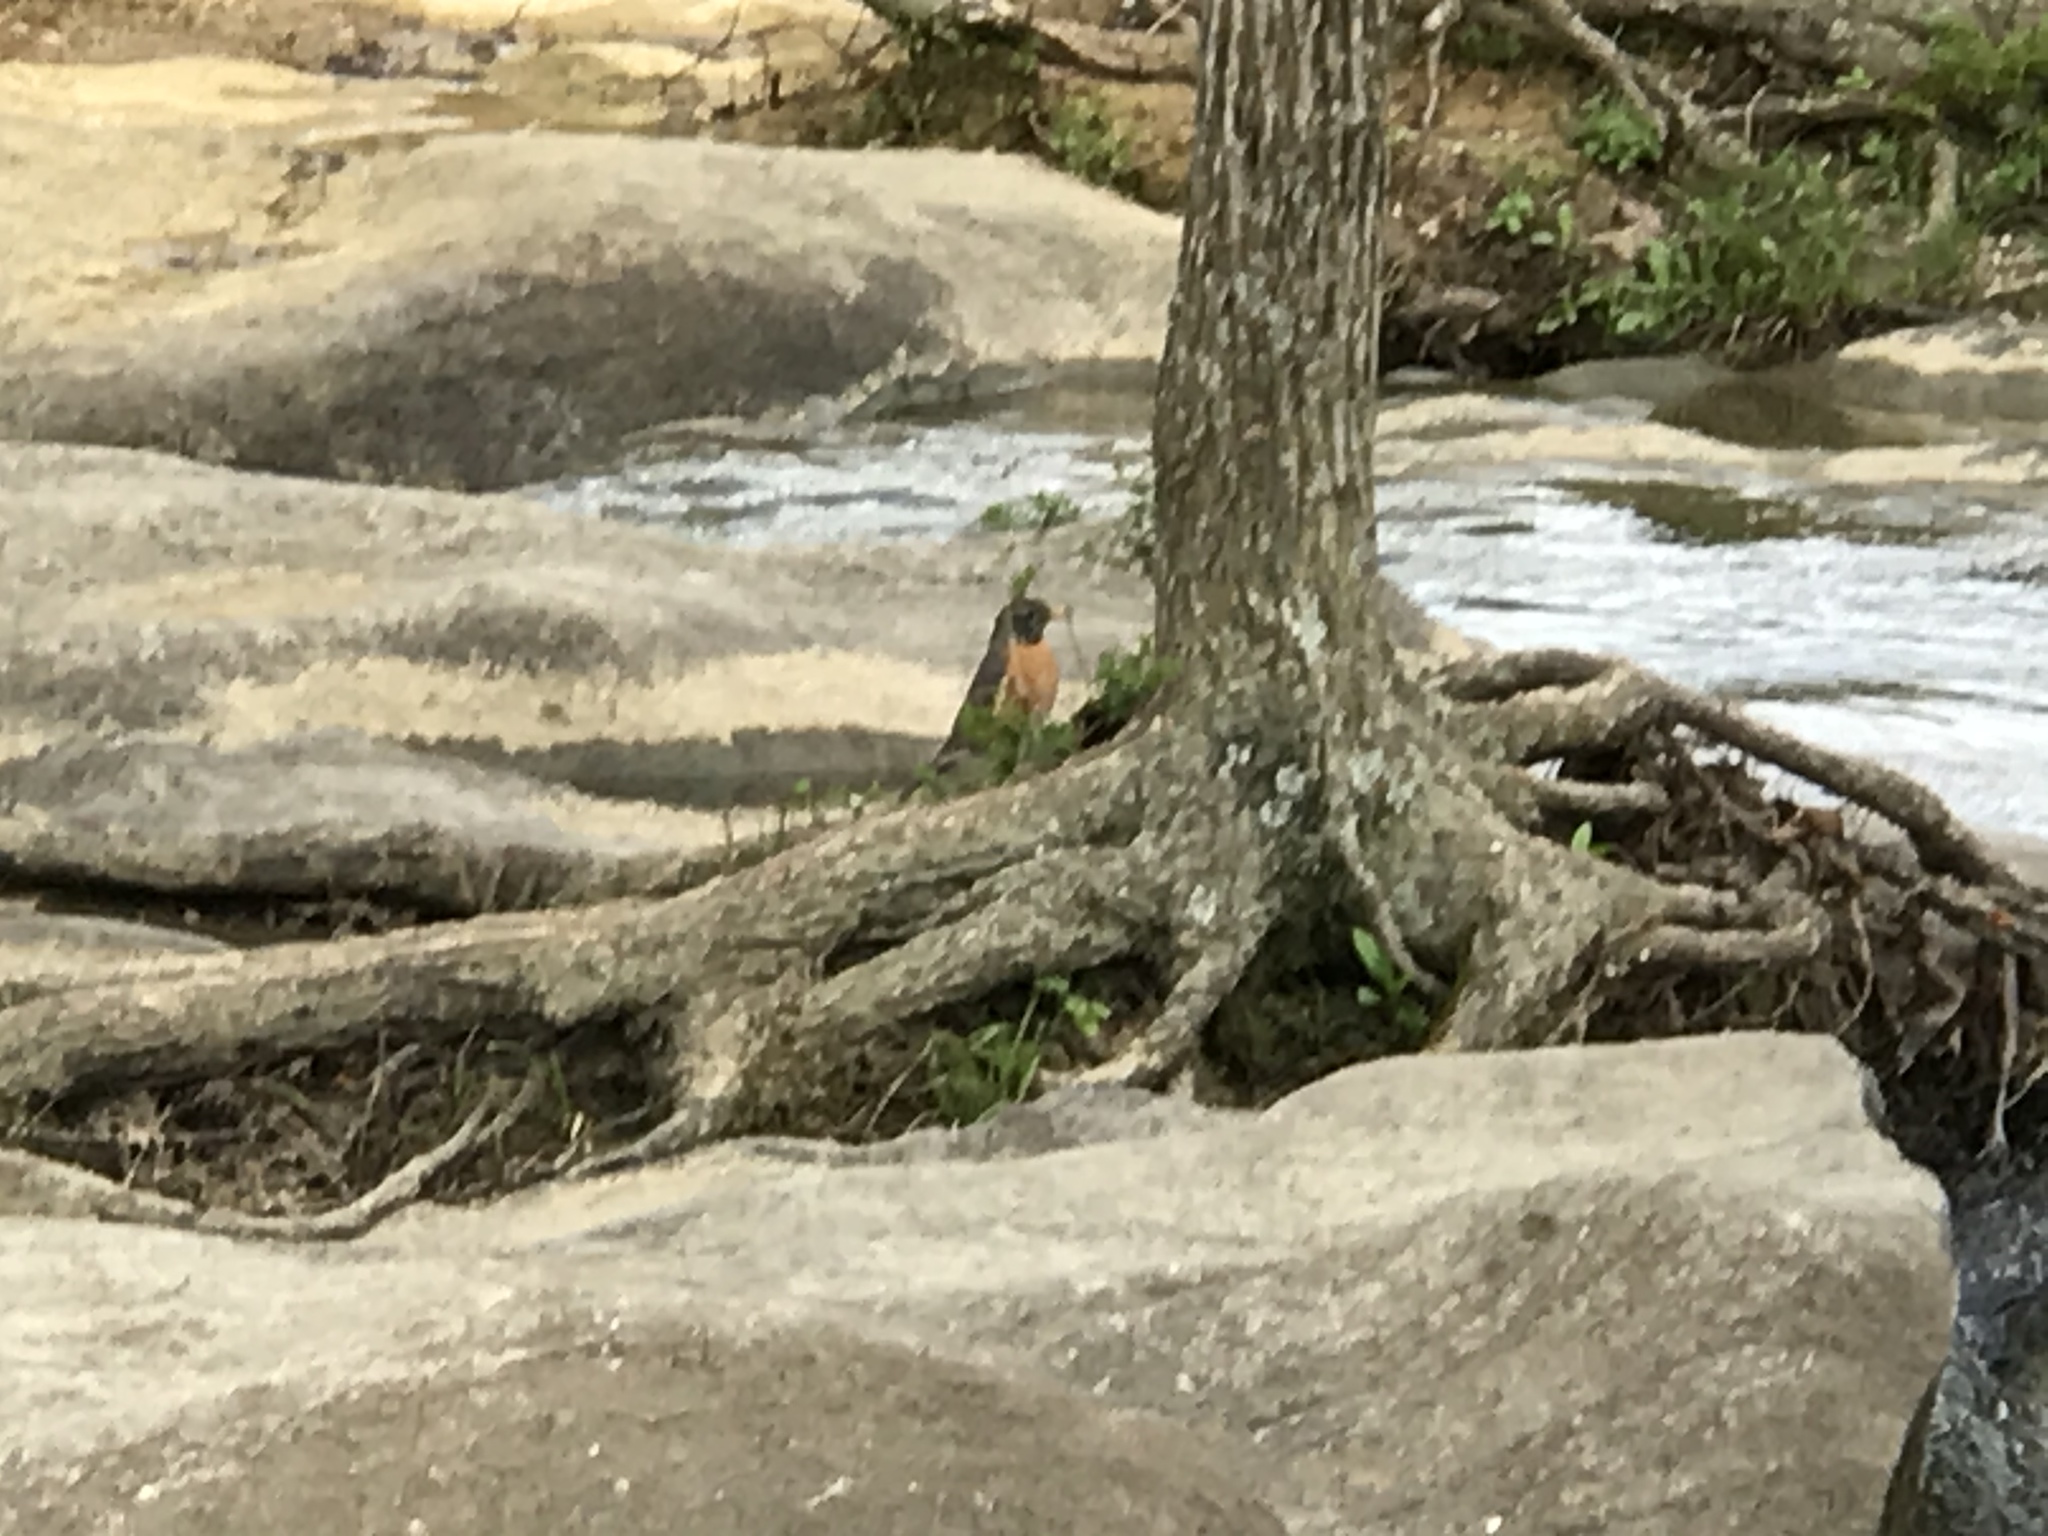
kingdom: Animalia
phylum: Chordata
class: Aves
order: Passeriformes
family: Turdidae
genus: Turdus
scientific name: Turdus migratorius
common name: American robin
